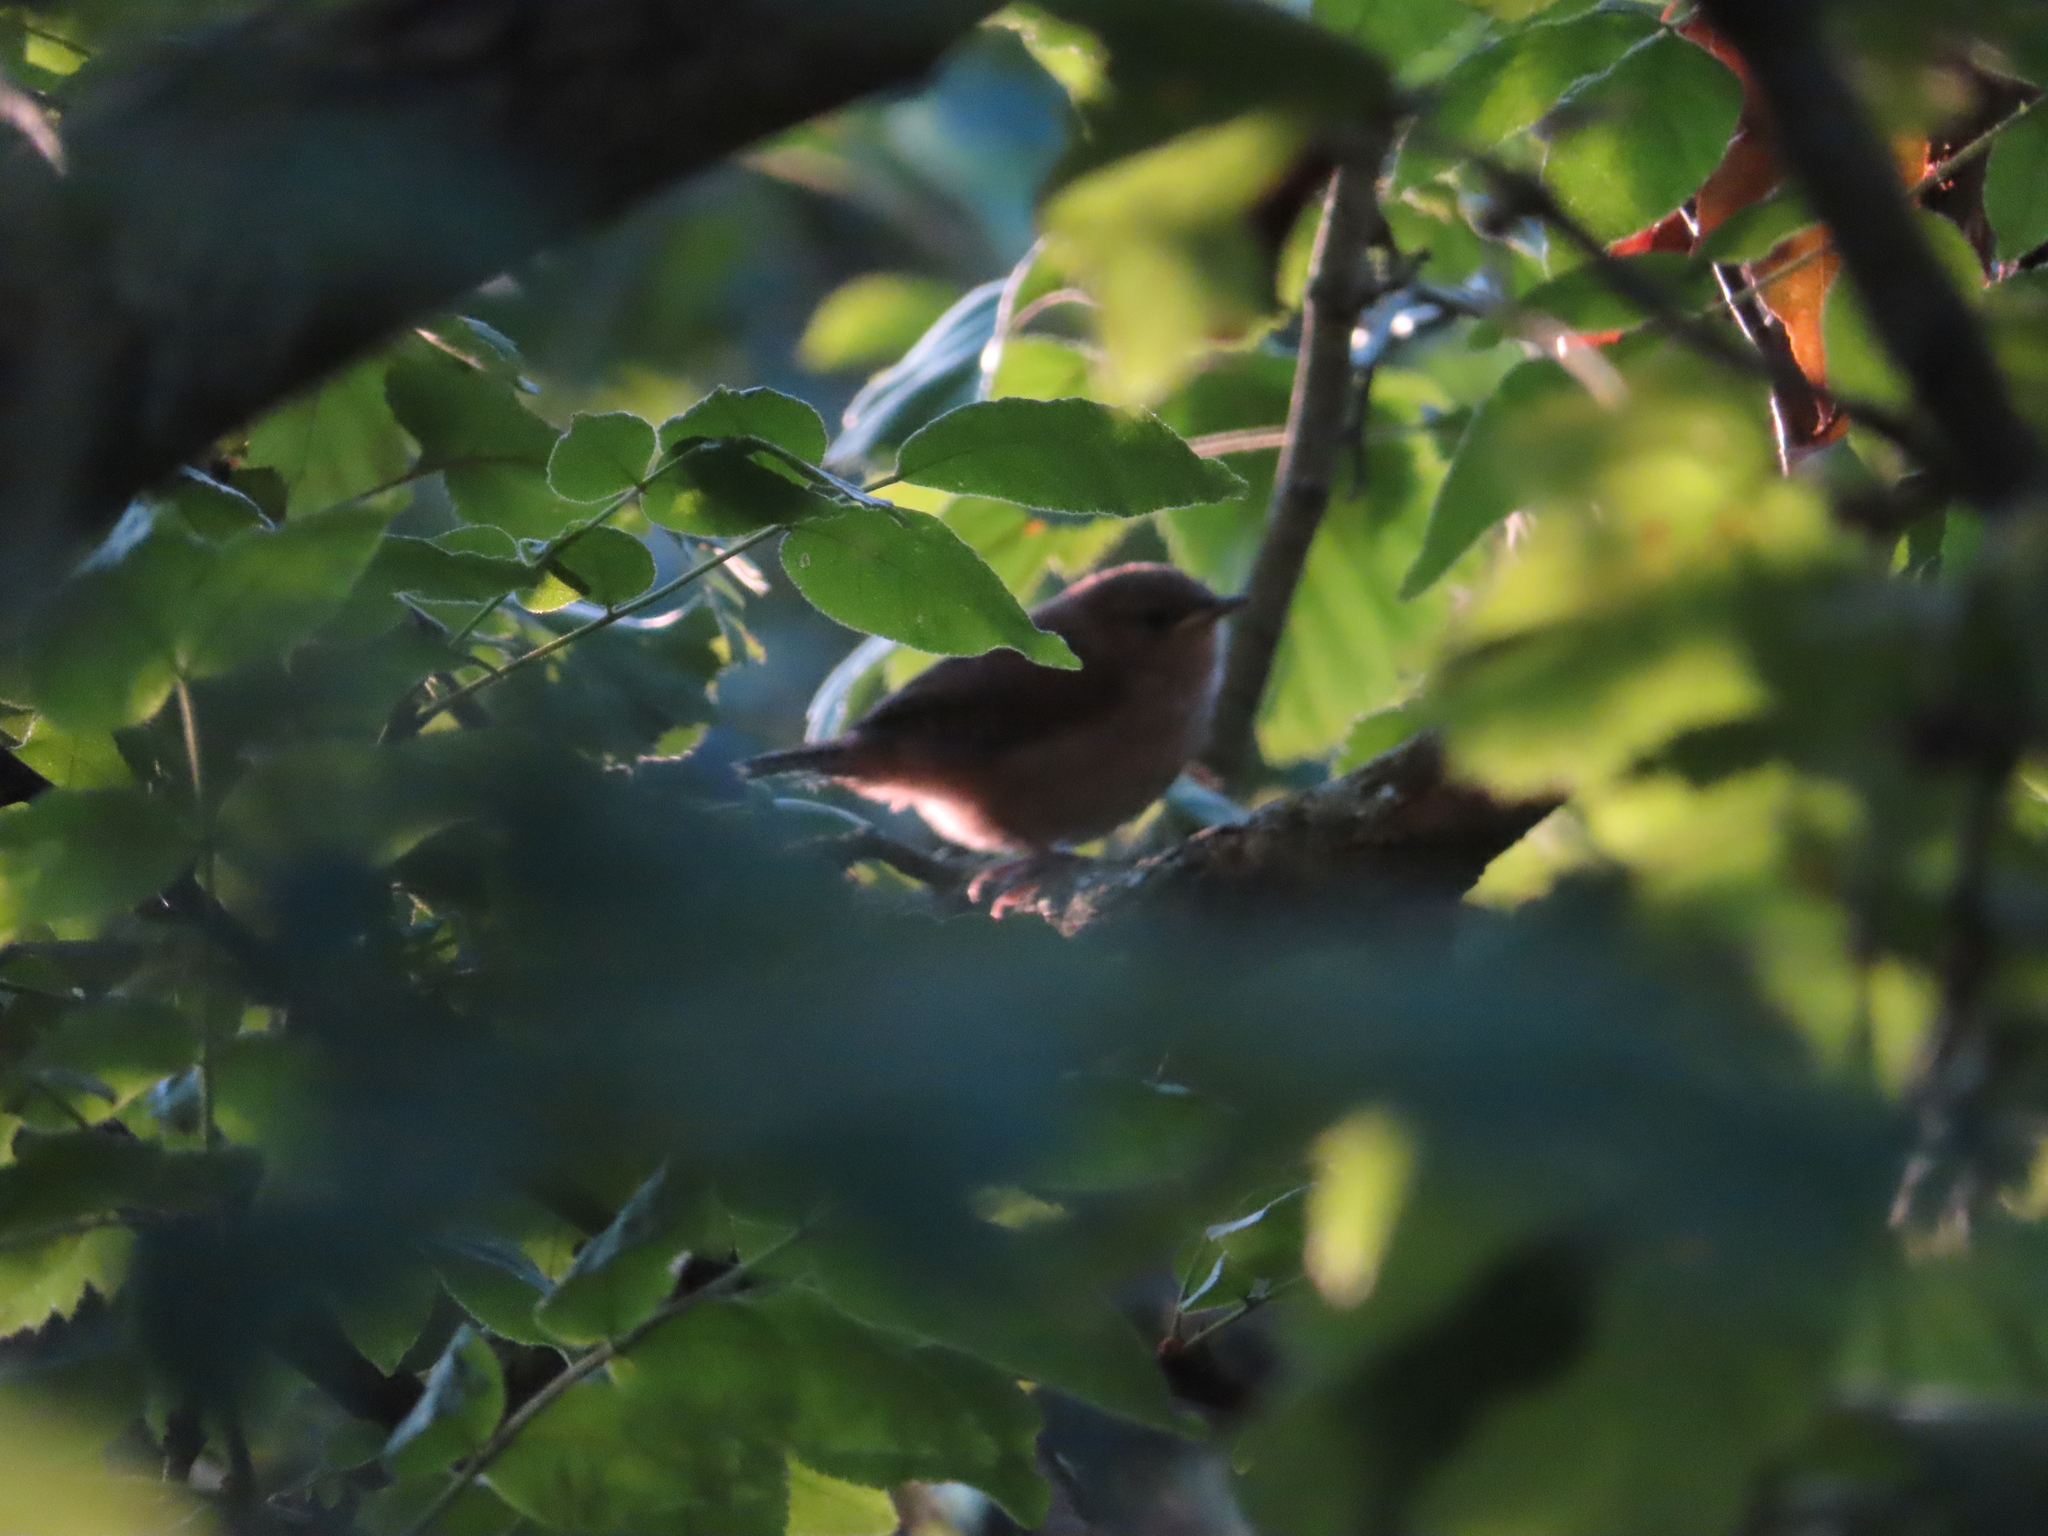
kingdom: Animalia
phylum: Chordata
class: Aves
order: Passeriformes
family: Troglodytidae
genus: Troglodytes
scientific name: Troglodytes aedon
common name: House wren
